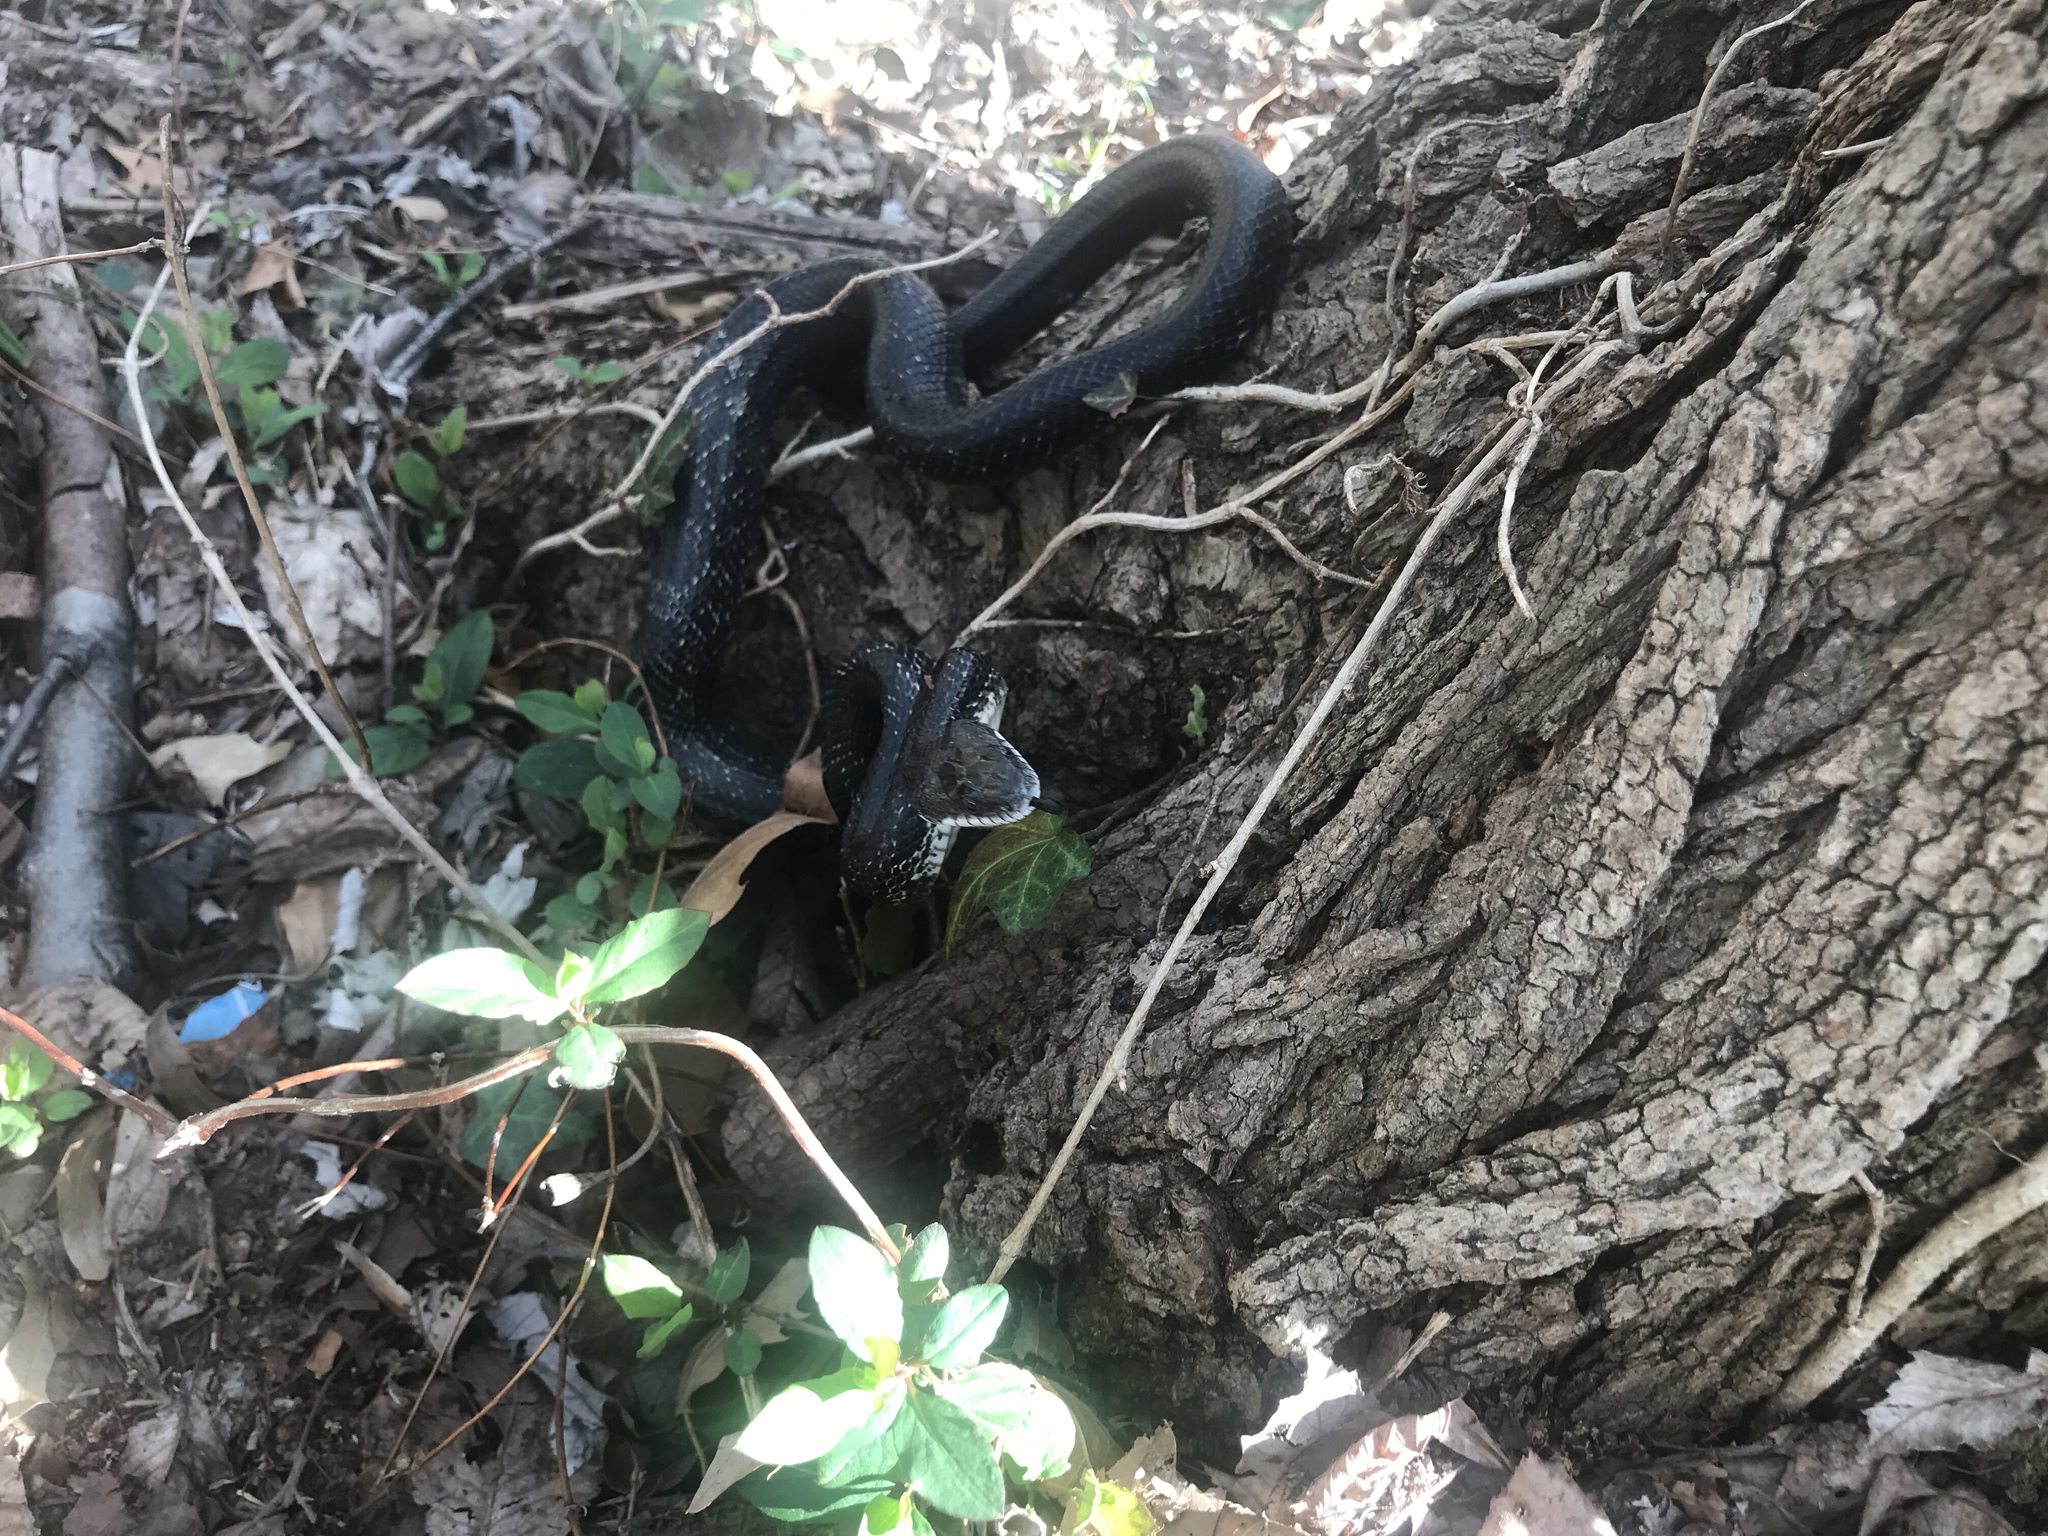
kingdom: Animalia
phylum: Chordata
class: Squamata
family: Colubridae
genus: Pantherophis
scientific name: Pantherophis alleghaniensis
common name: Eastern rat snake
